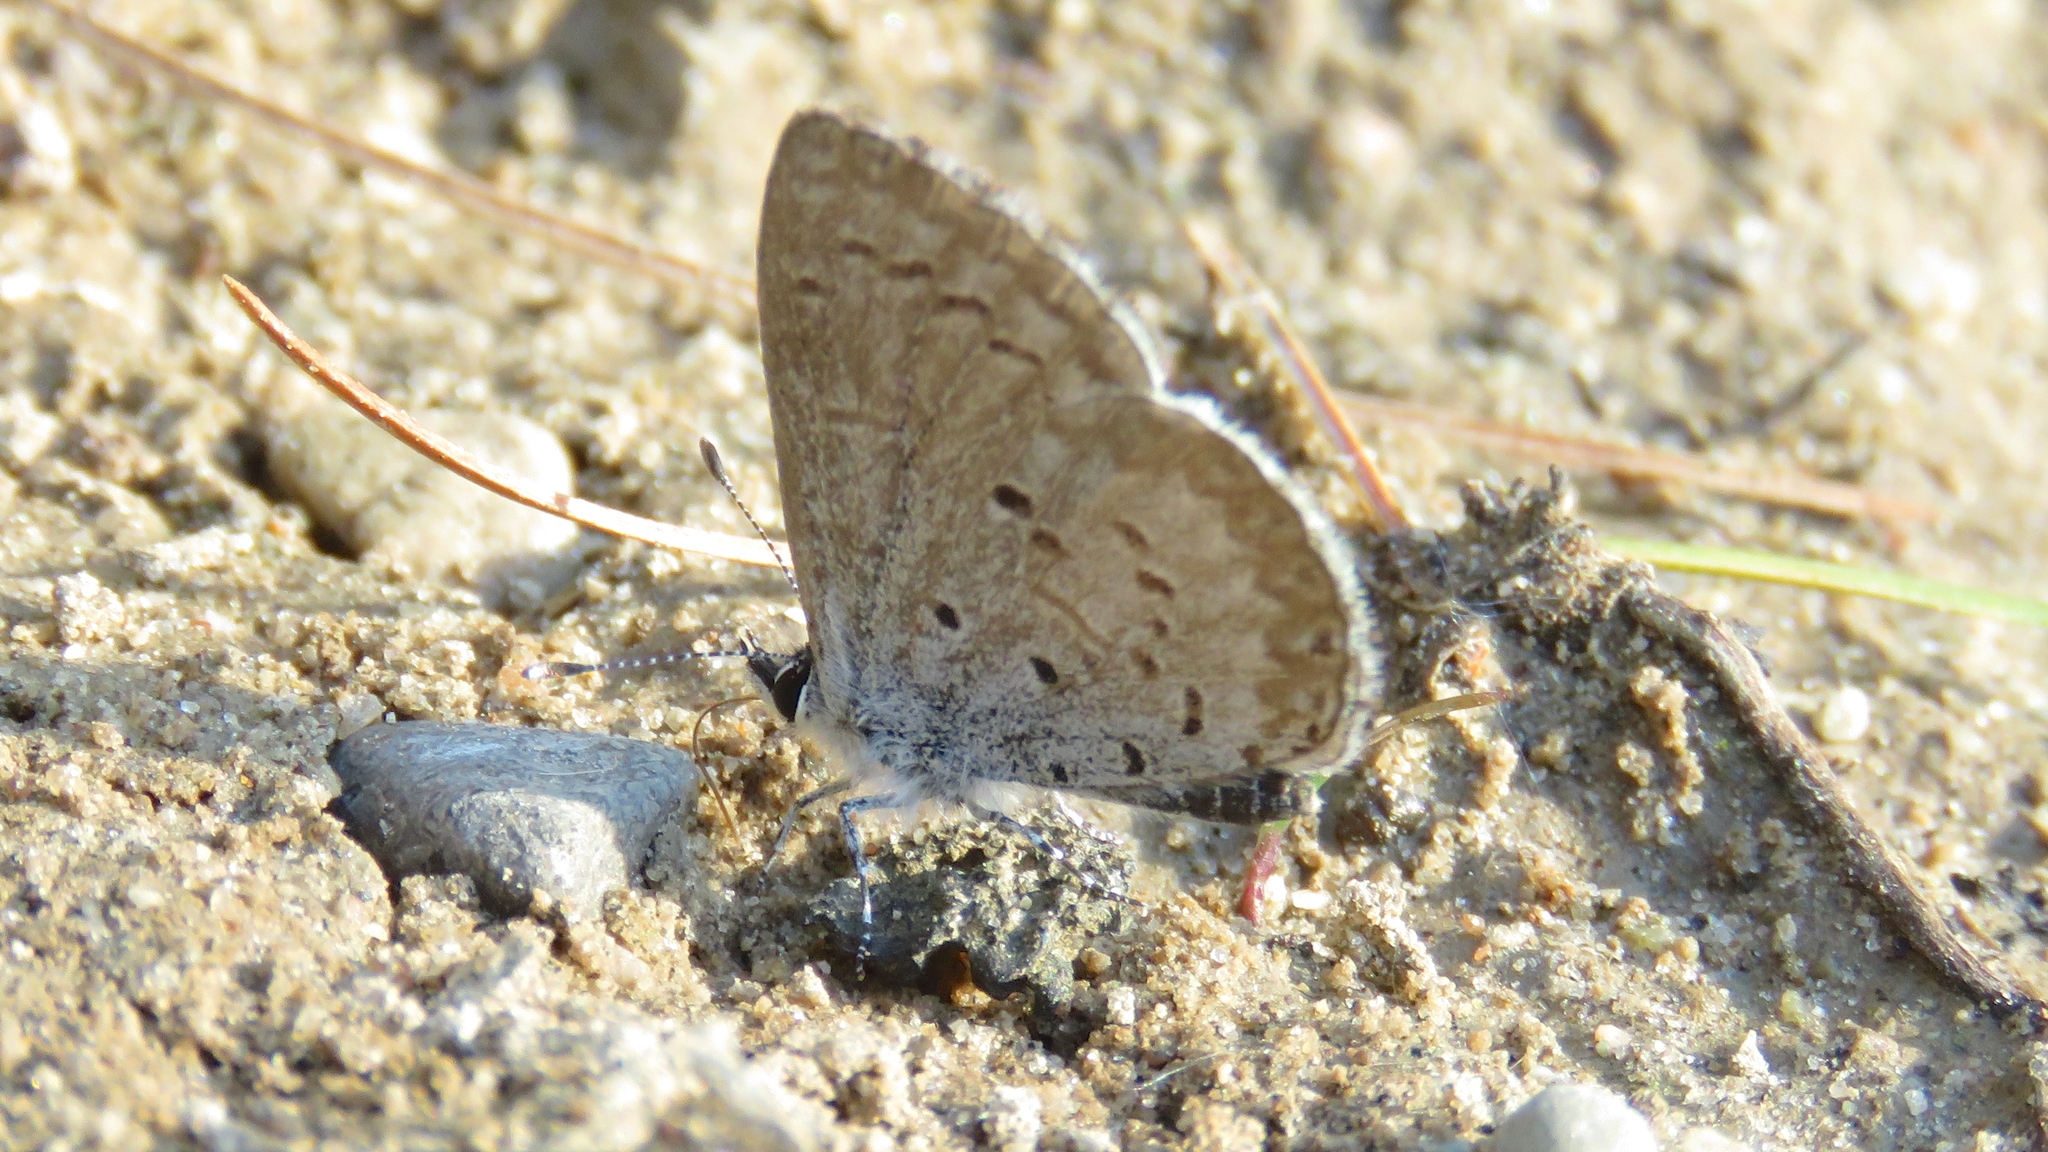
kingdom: Animalia
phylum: Arthropoda
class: Insecta
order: Lepidoptera
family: Lycaenidae
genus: Celastrina
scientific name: Celastrina lucia
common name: Lucia azure
